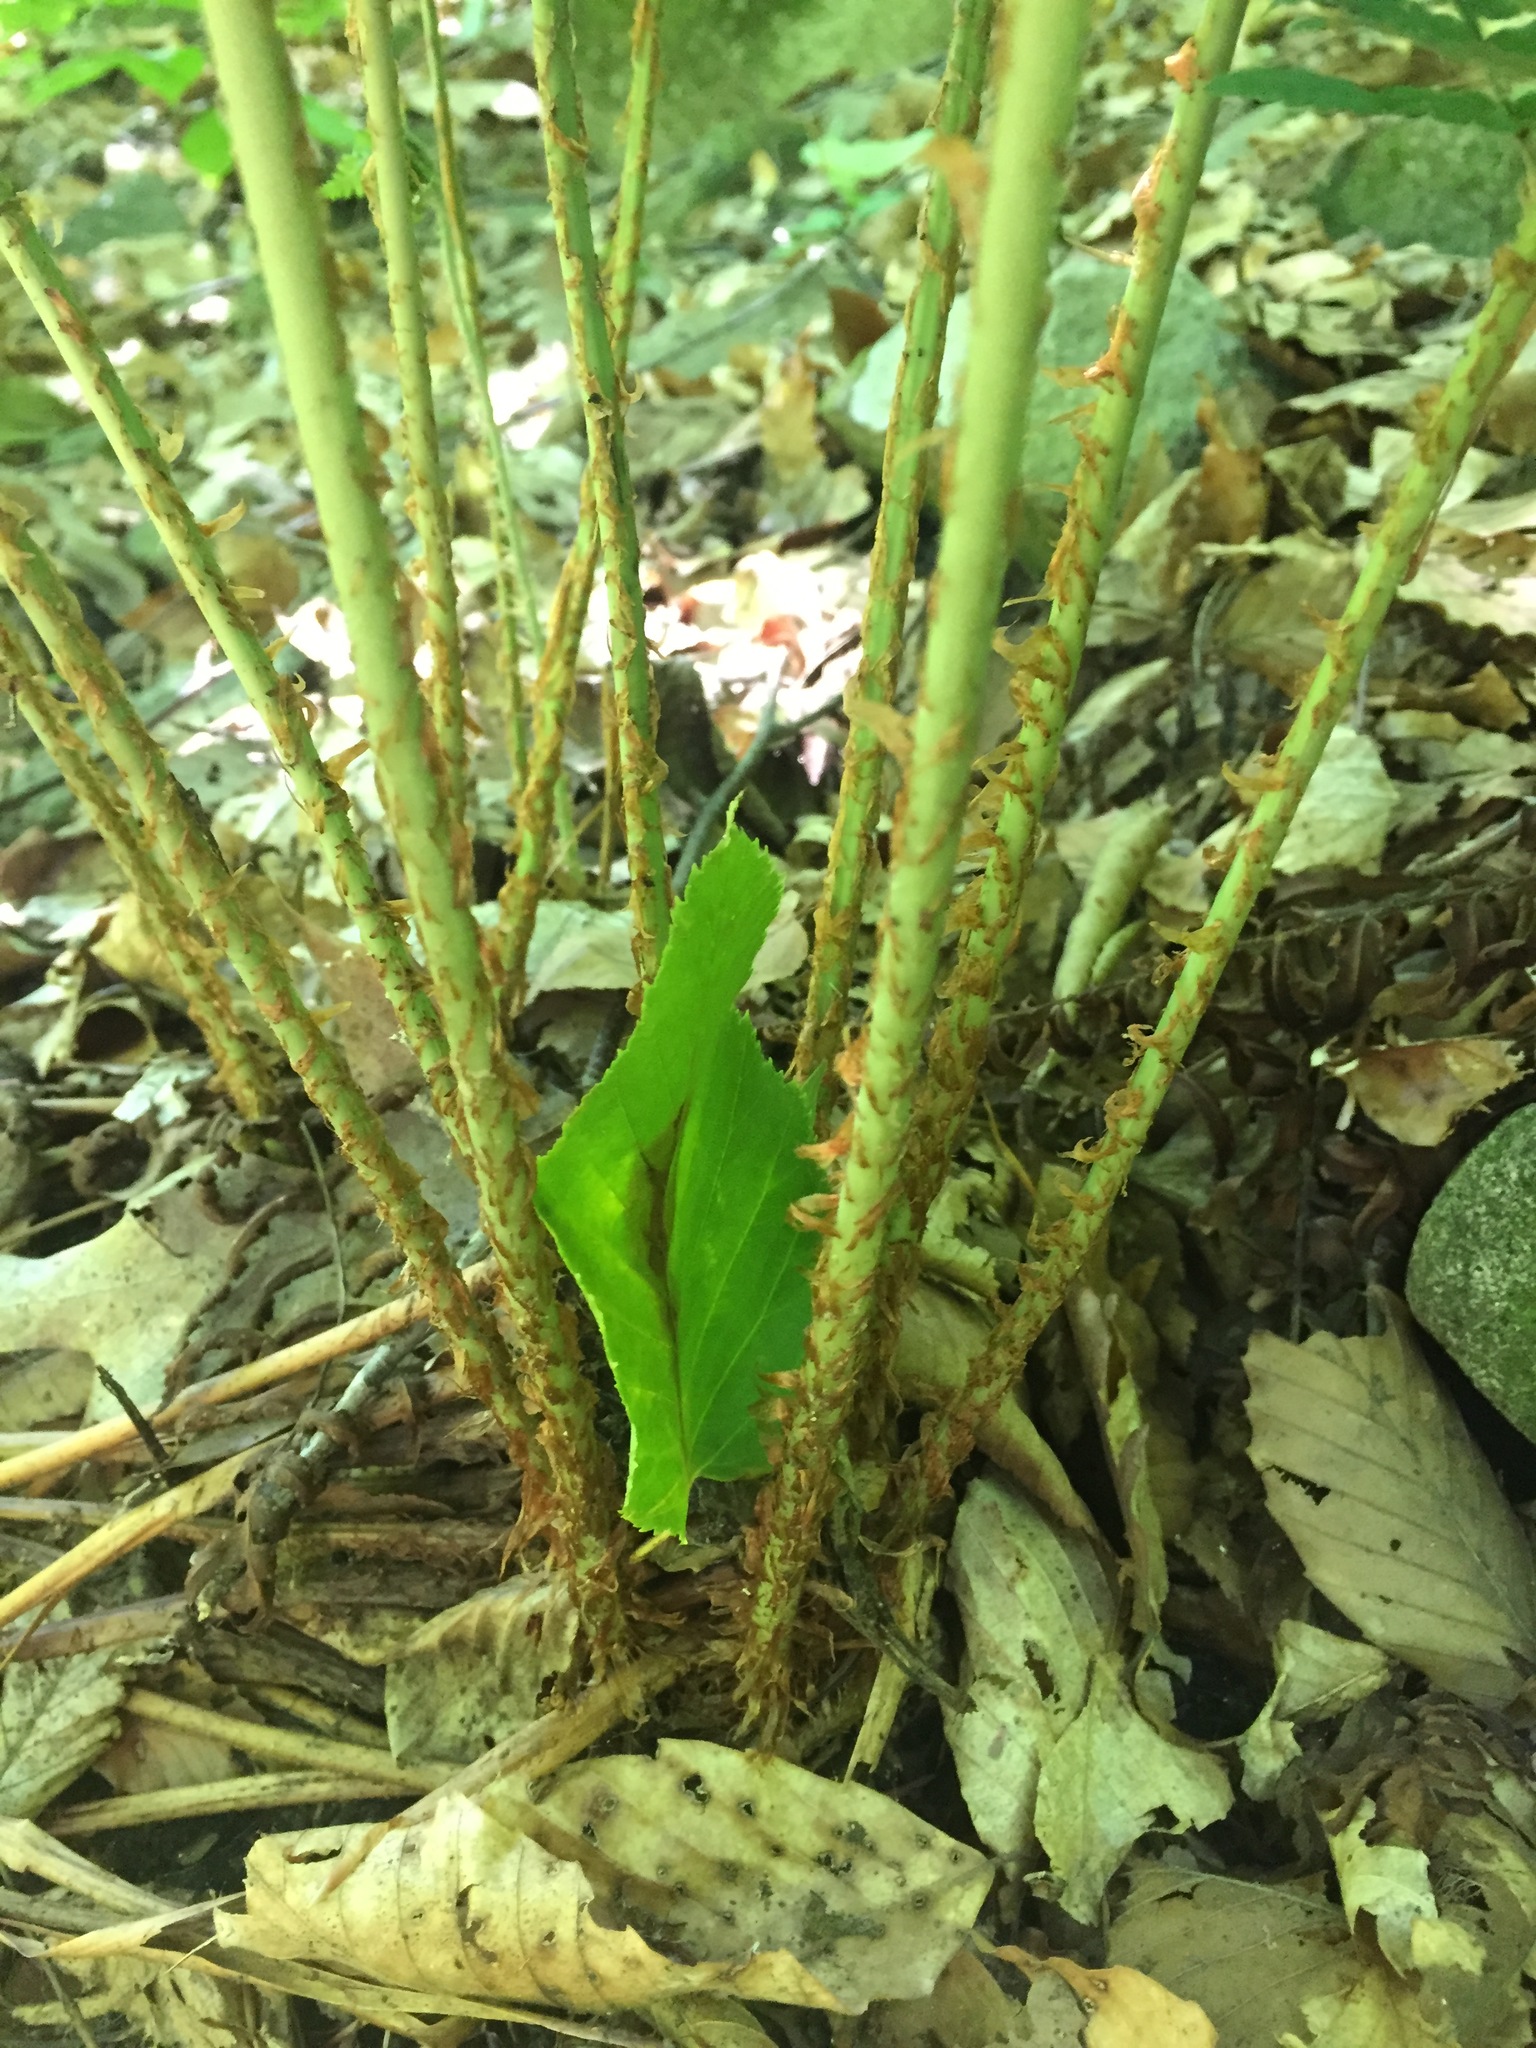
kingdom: Plantae
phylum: Tracheophyta
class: Polypodiopsida
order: Polypodiales
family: Dryopteridaceae
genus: Dryopteris
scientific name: Dryopteris marginalis
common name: Marginal wood fern
